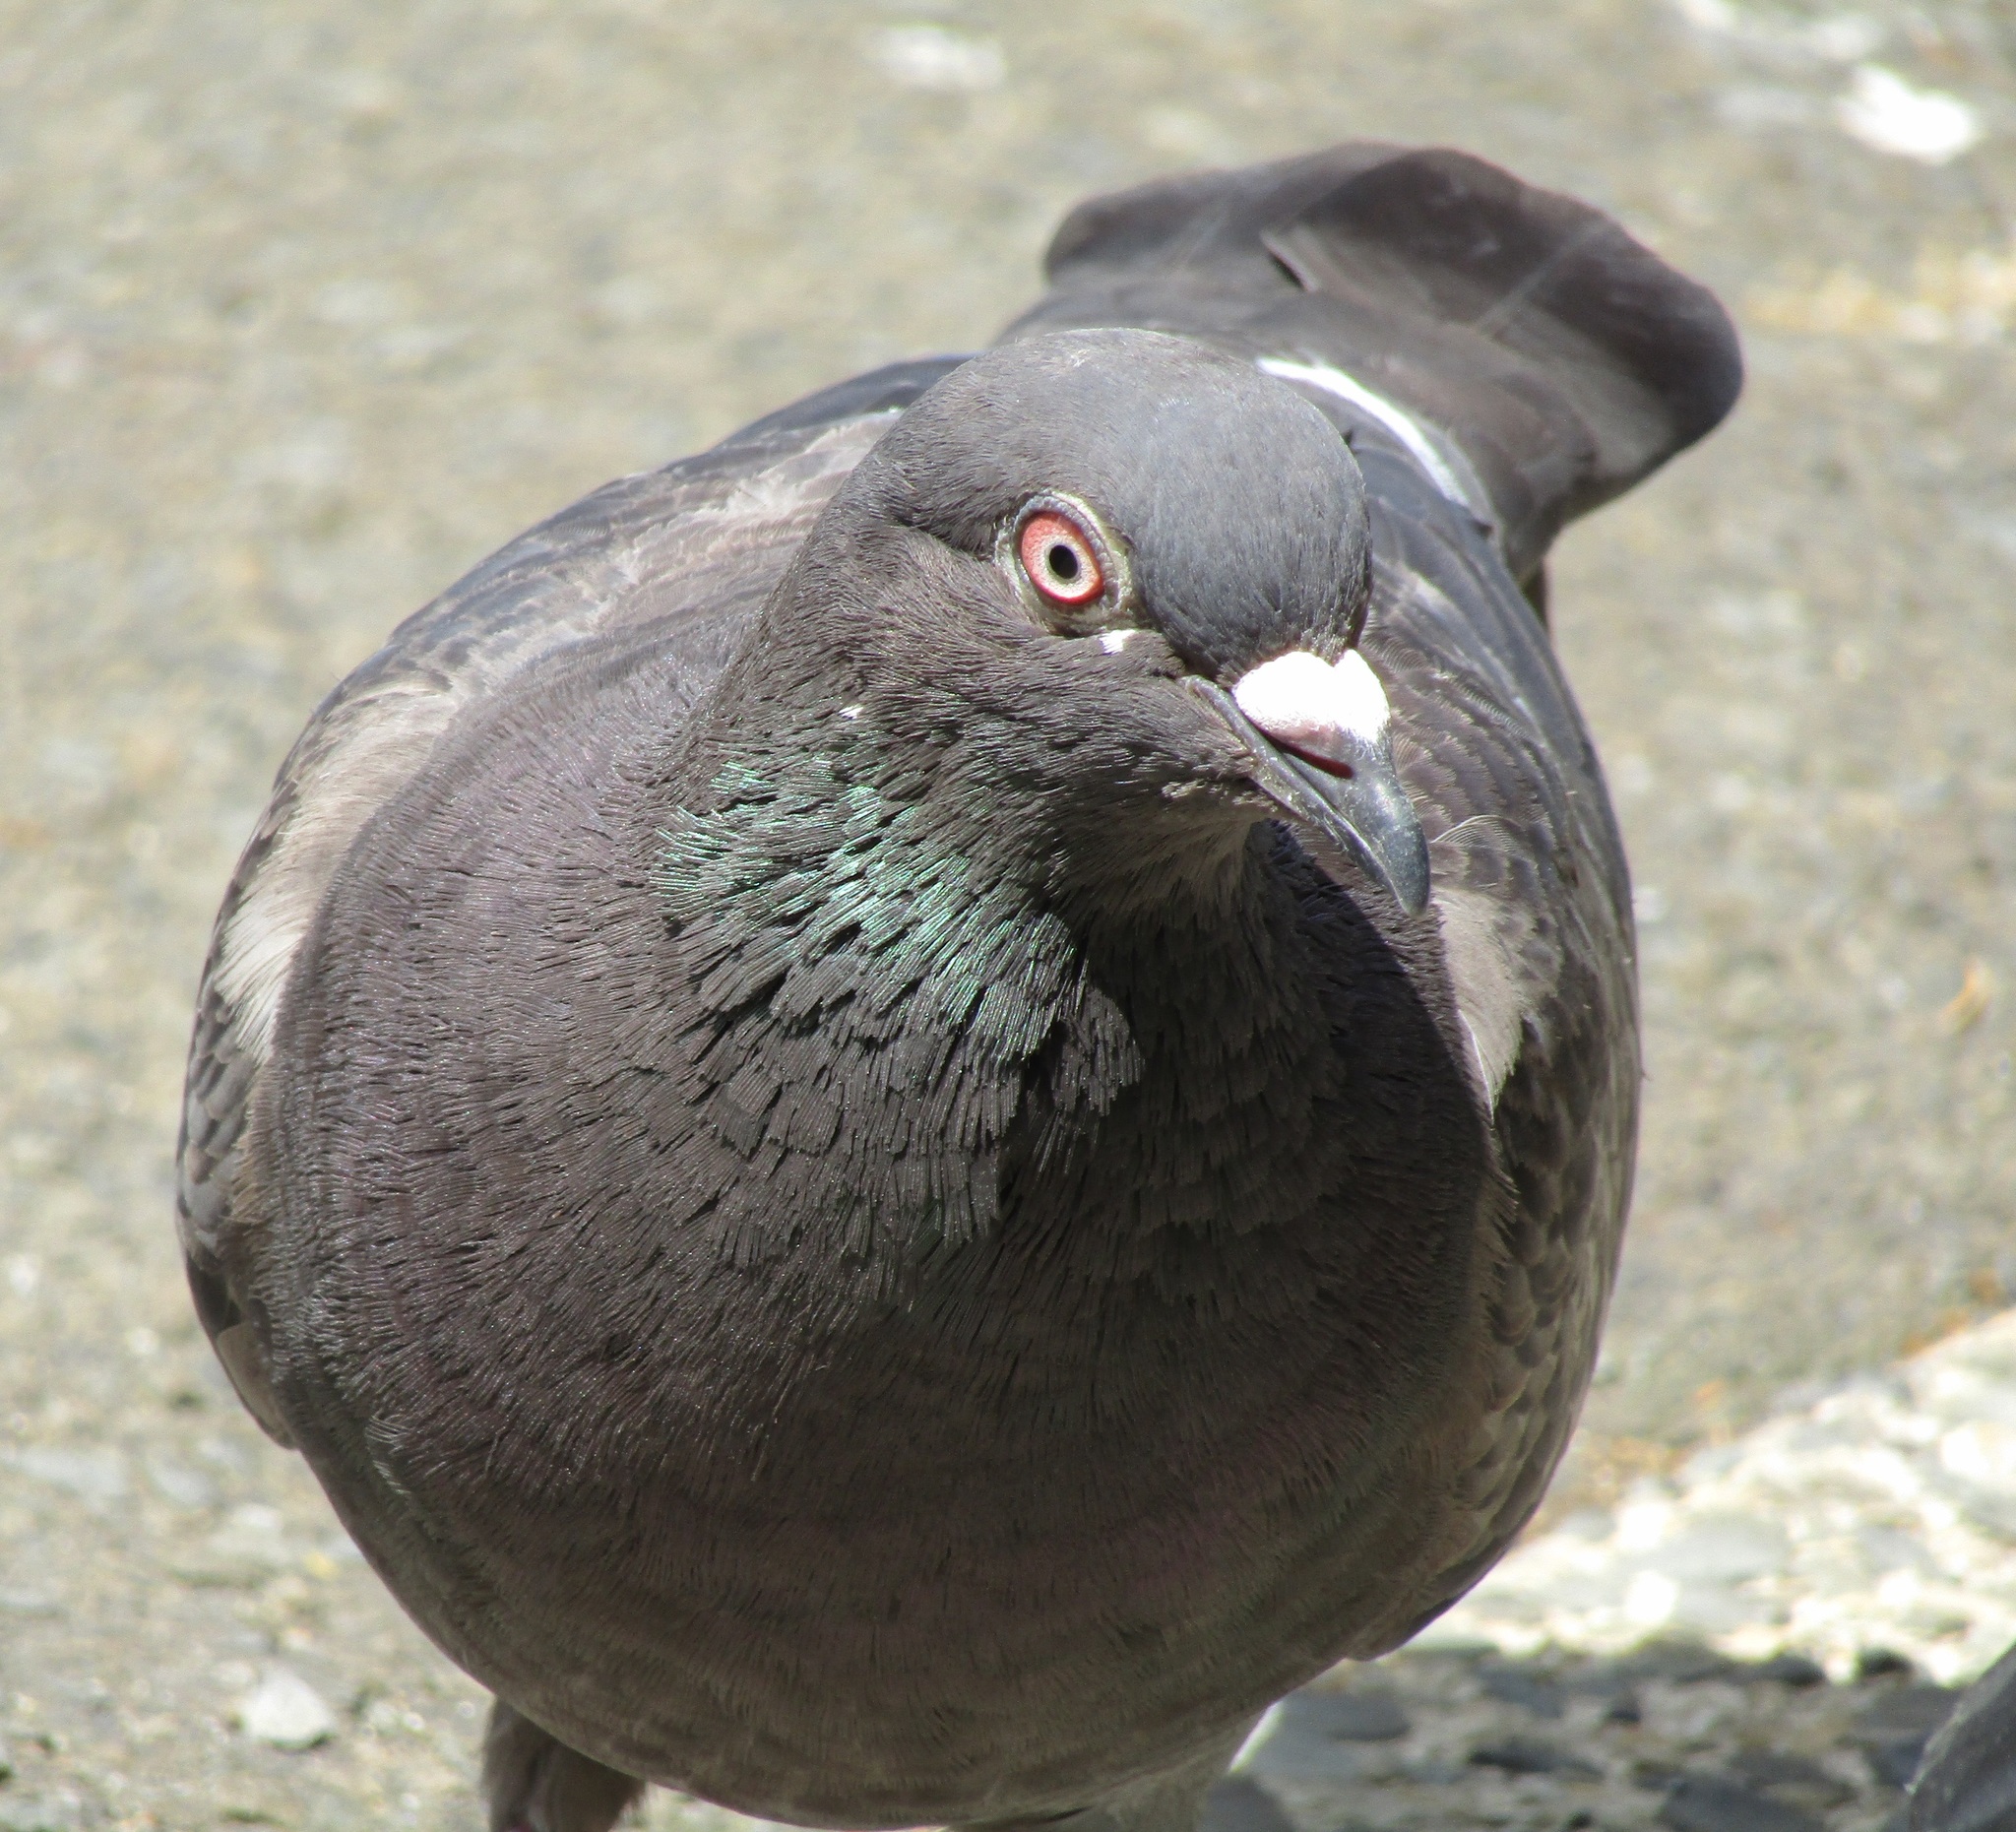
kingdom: Animalia
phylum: Chordata
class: Aves
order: Columbiformes
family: Columbidae
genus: Columba
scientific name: Columba livia
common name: Rock pigeon
